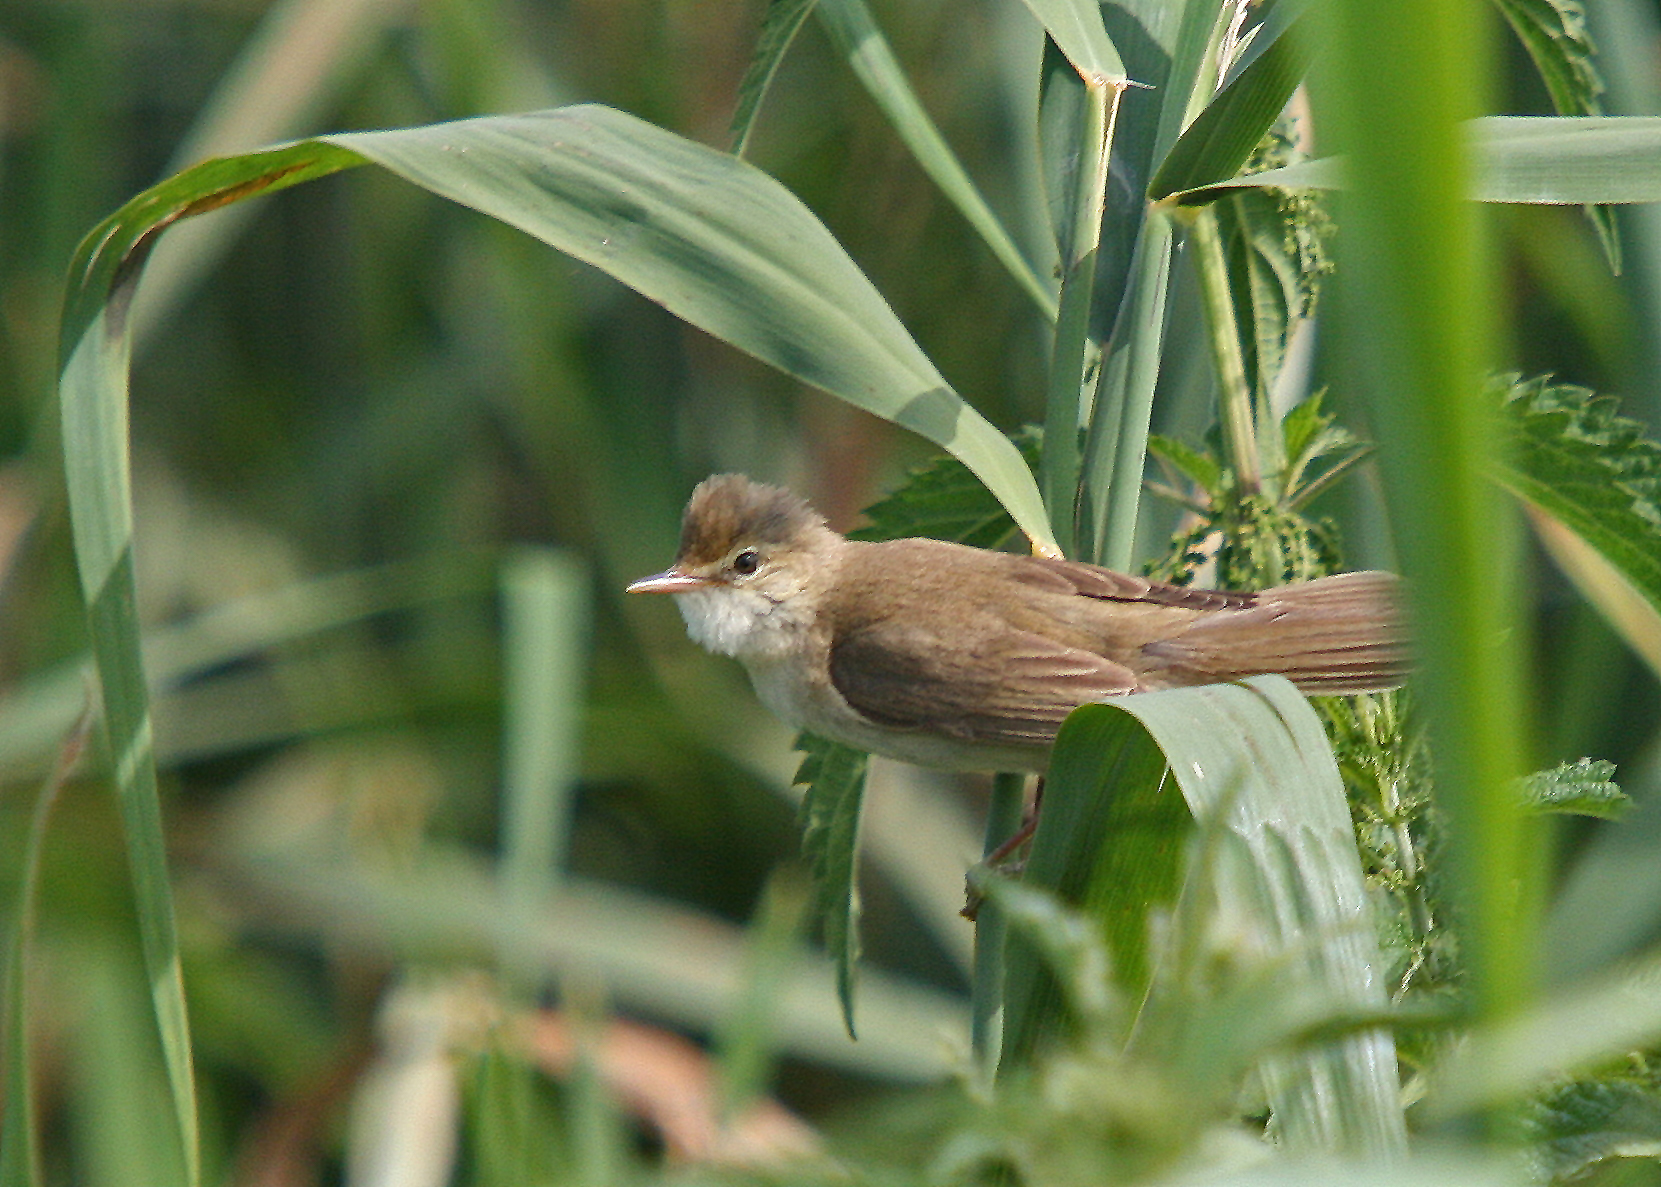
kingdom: Animalia
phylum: Chordata
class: Aves
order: Passeriformes
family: Acrocephalidae
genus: Acrocephalus
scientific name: Acrocephalus palustris
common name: Marsh warbler
